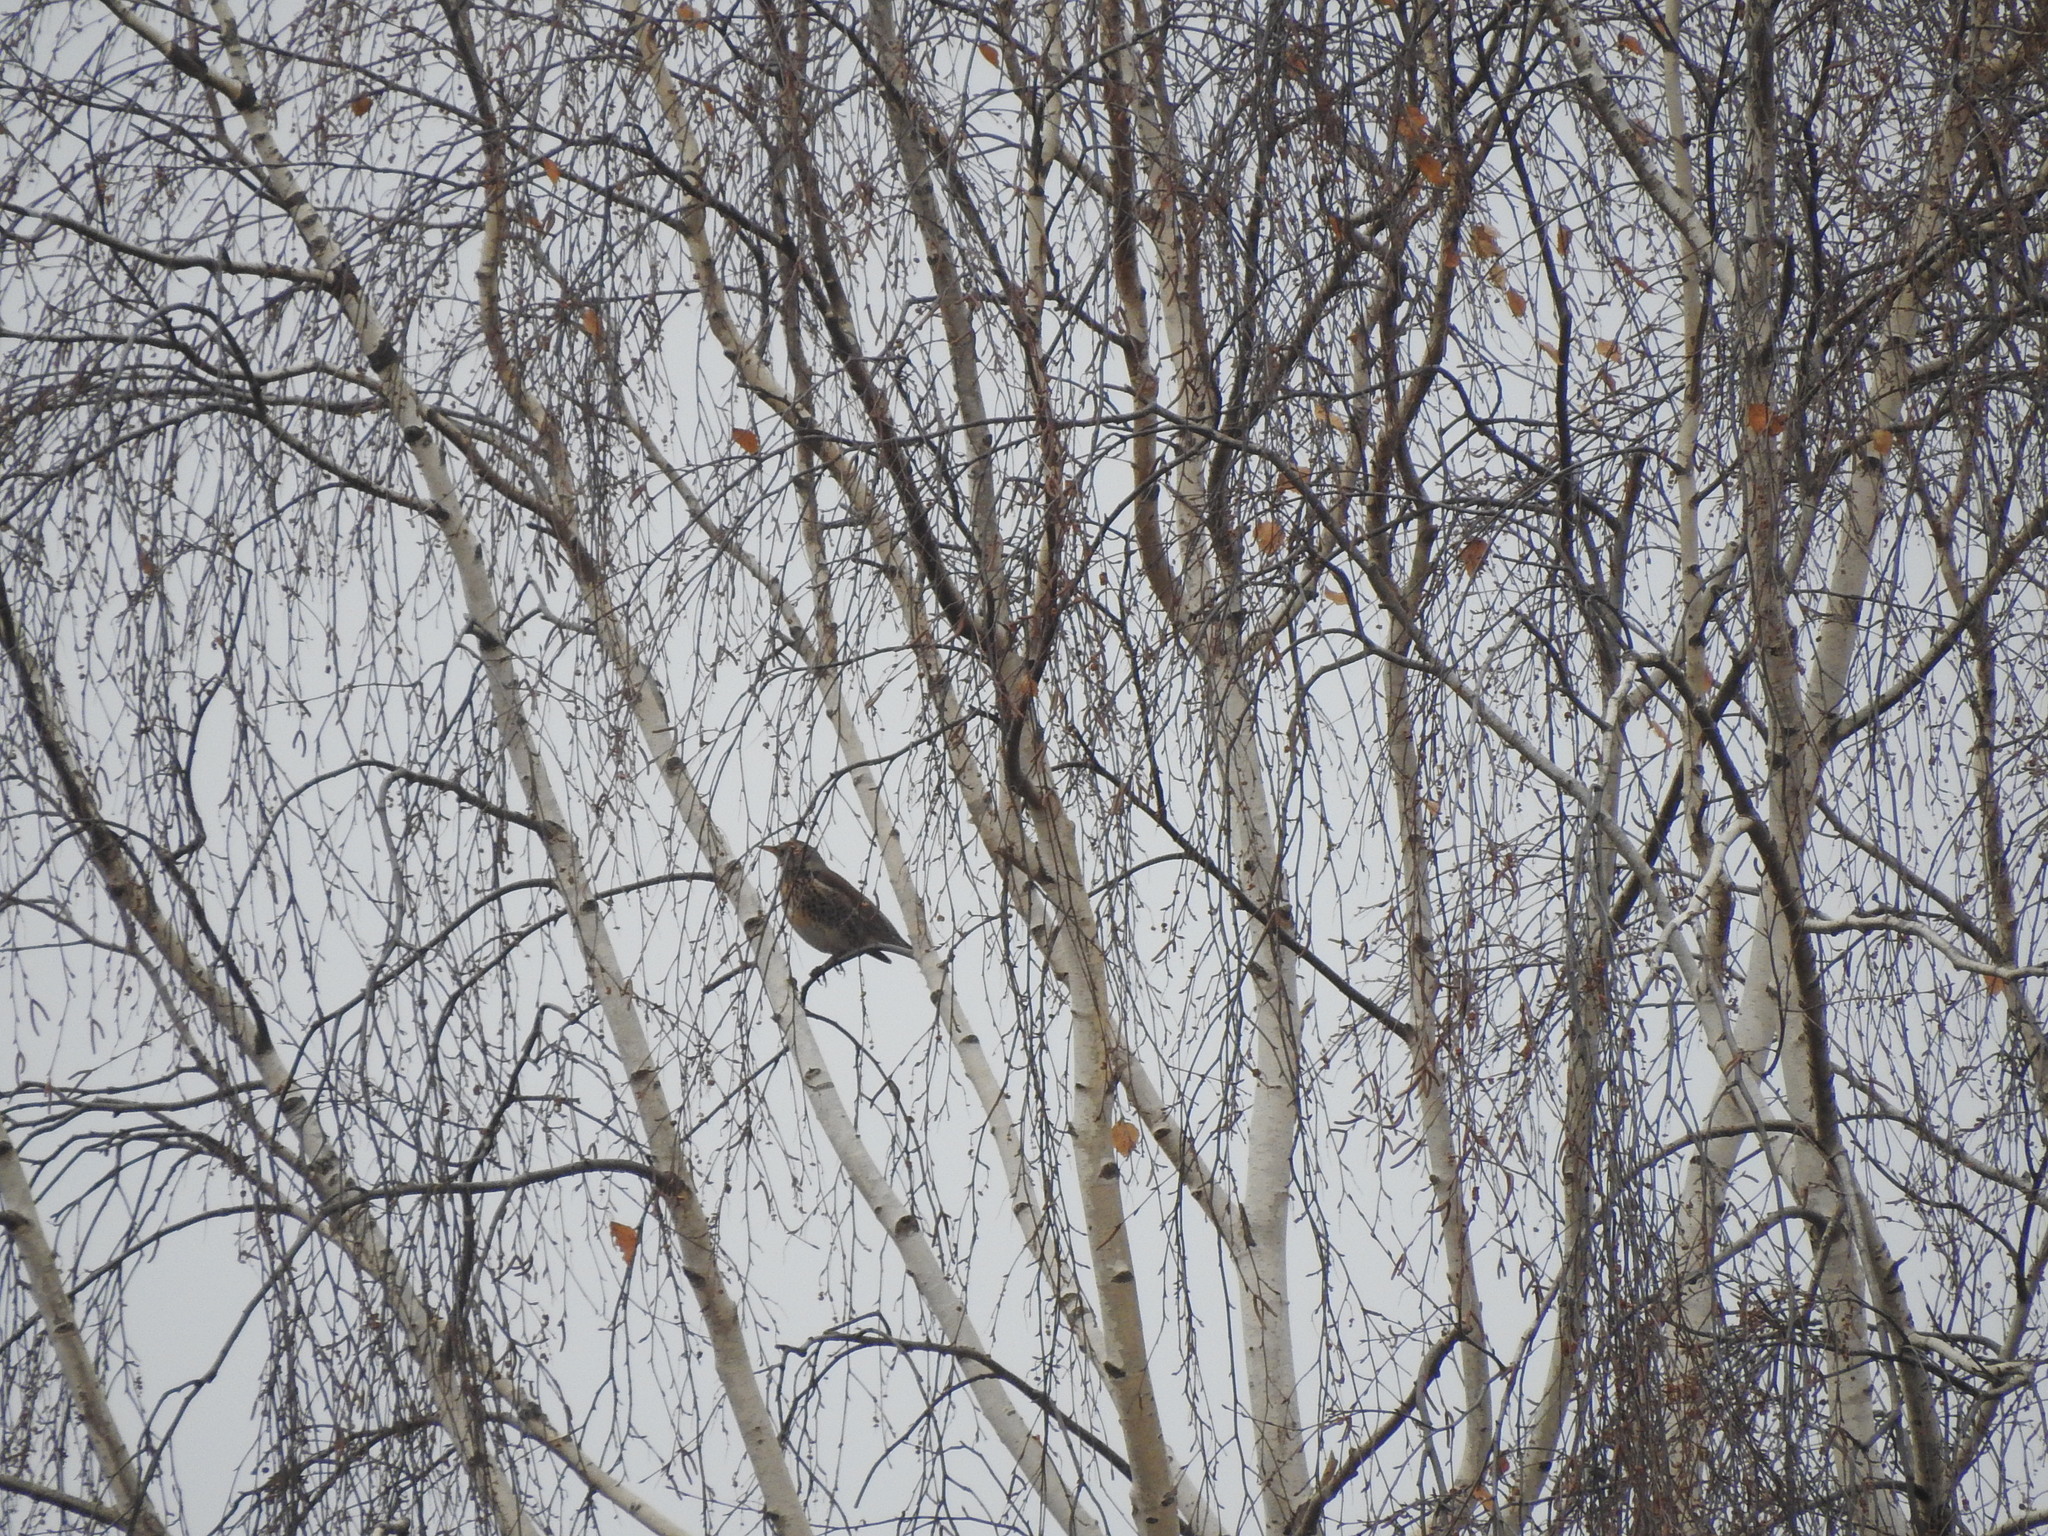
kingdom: Animalia
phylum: Chordata
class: Aves
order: Passeriformes
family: Turdidae
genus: Turdus
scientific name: Turdus pilaris
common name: Fieldfare
